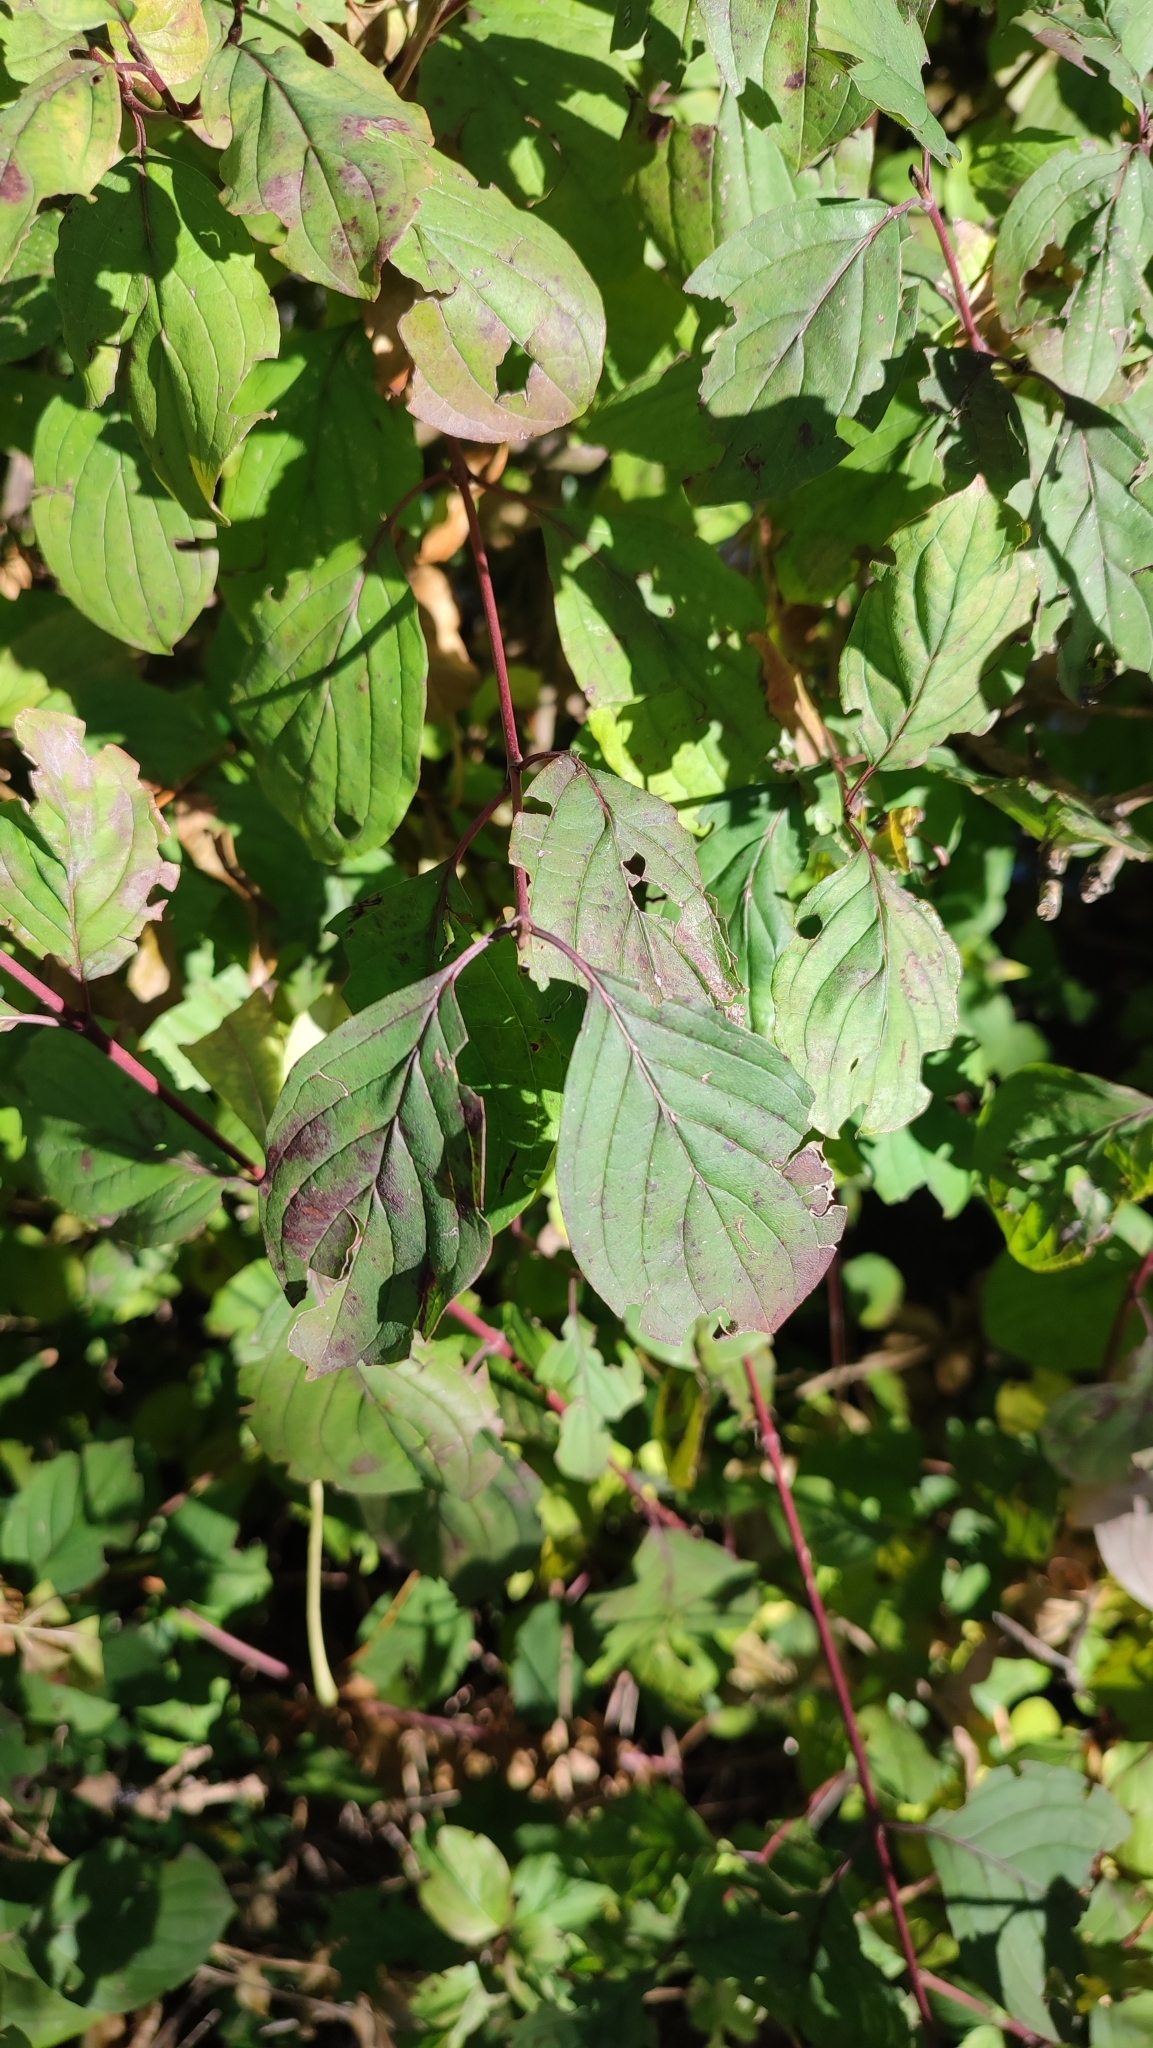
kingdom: Plantae
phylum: Tracheophyta
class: Magnoliopsida
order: Cornales
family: Cornaceae
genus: Cornus
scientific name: Cornus sanguinea
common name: Dogwood
